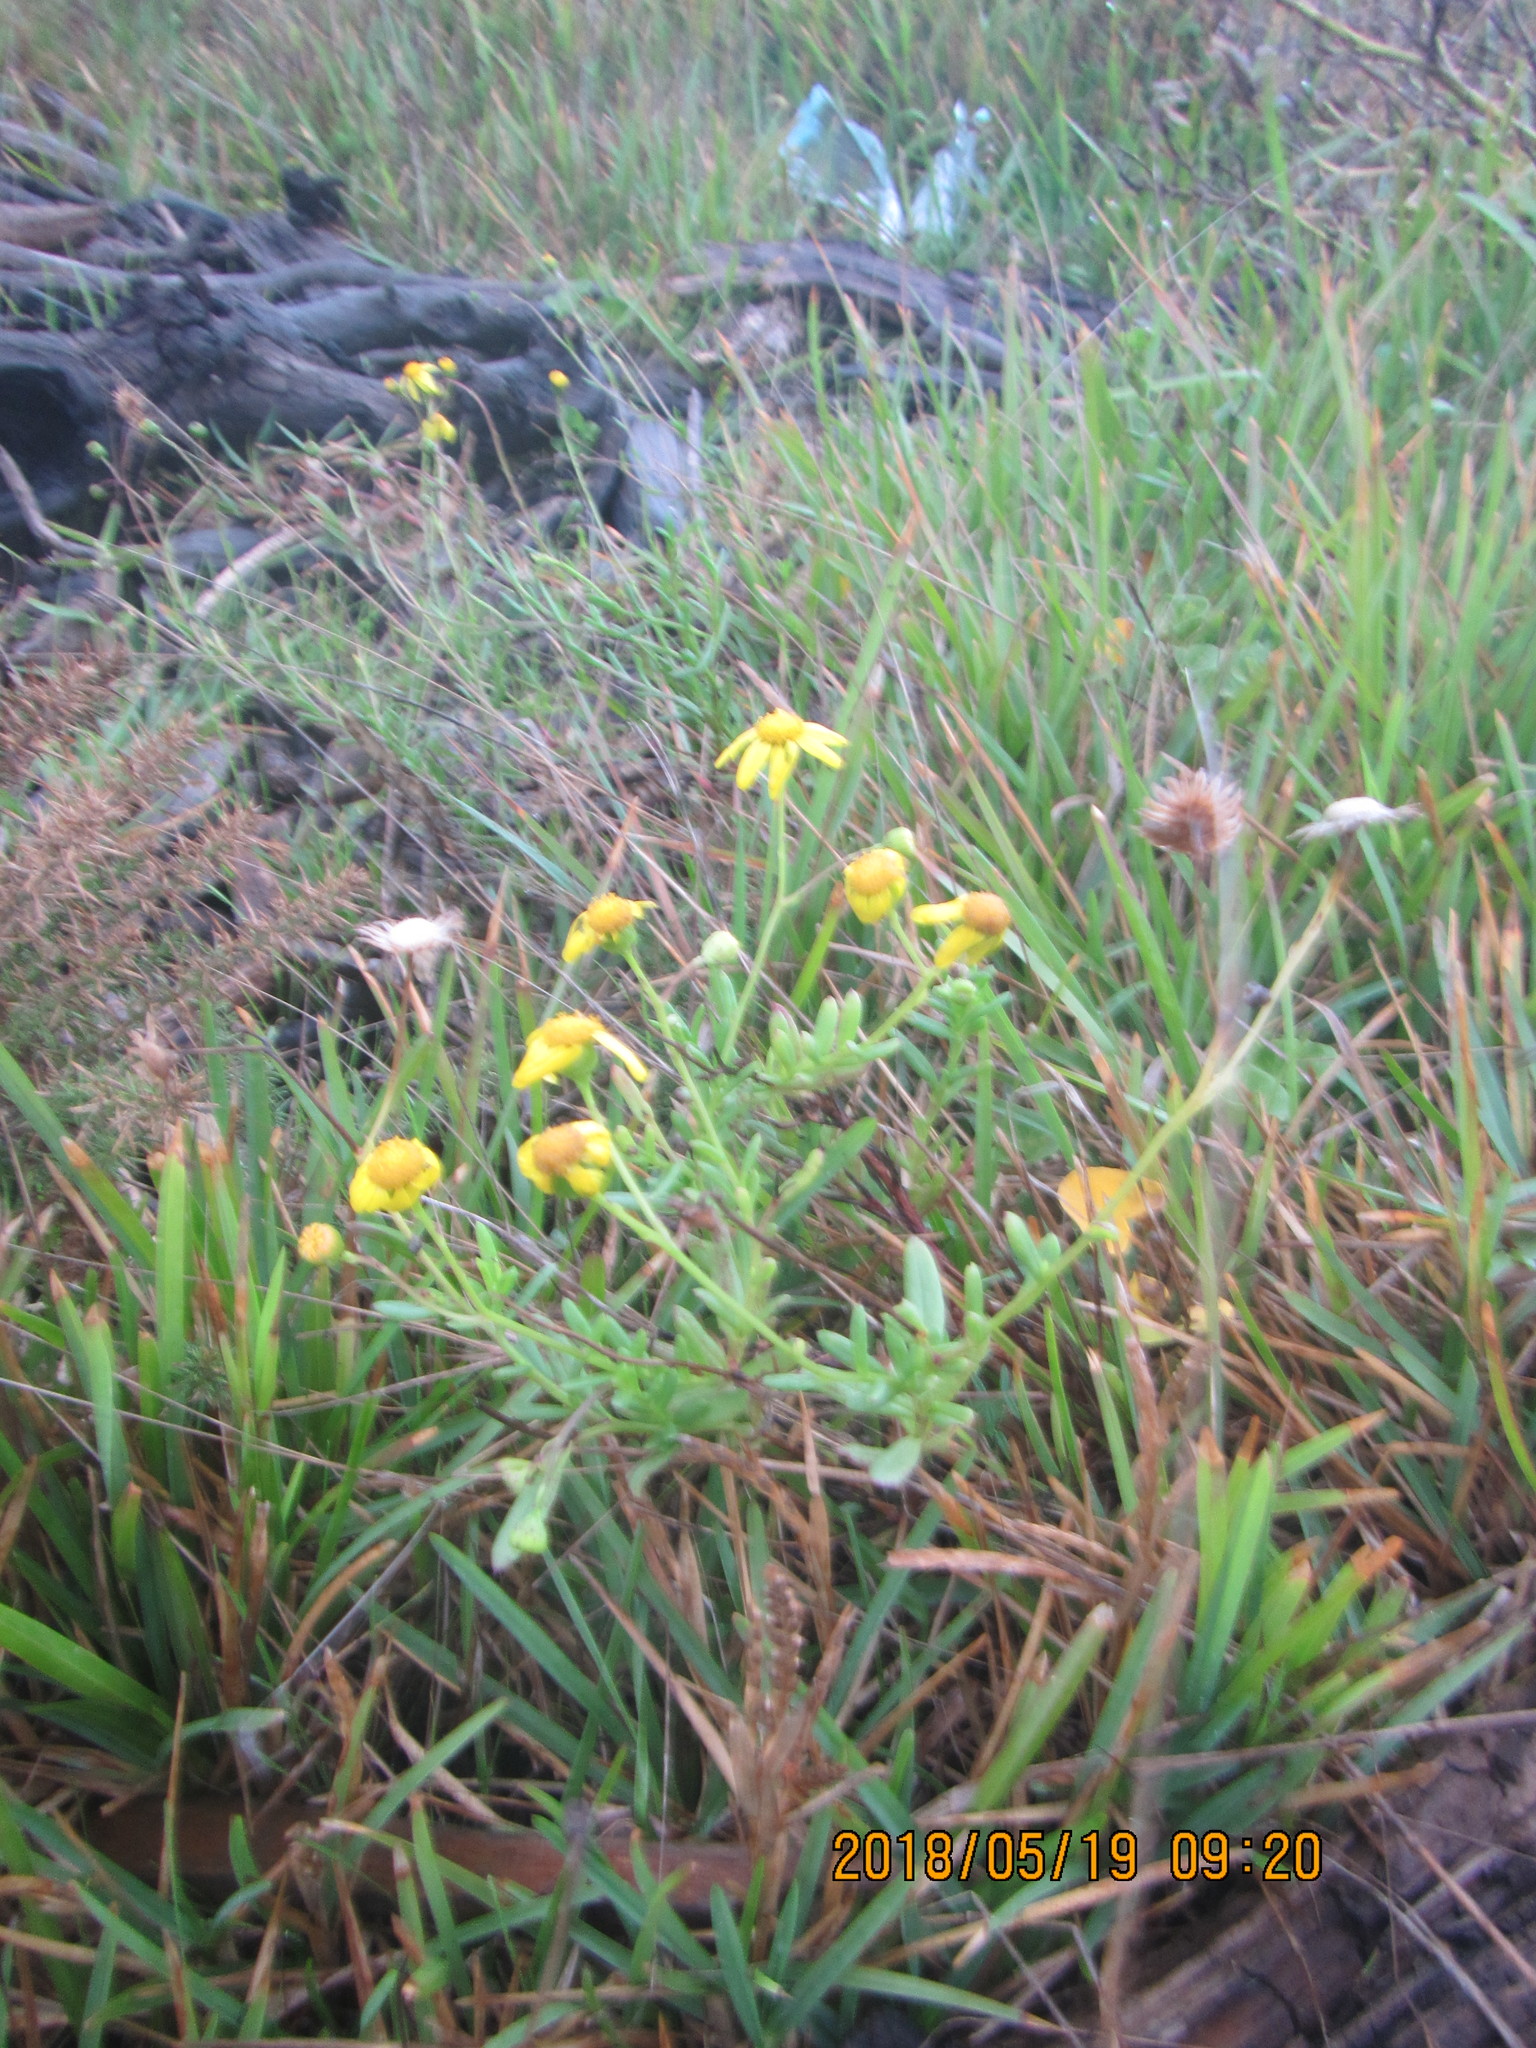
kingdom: Plantae
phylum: Tracheophyta
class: Magnoliopsida
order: Asterales
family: Asteraceae
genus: Senecio
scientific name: Senecio skirrhodon
